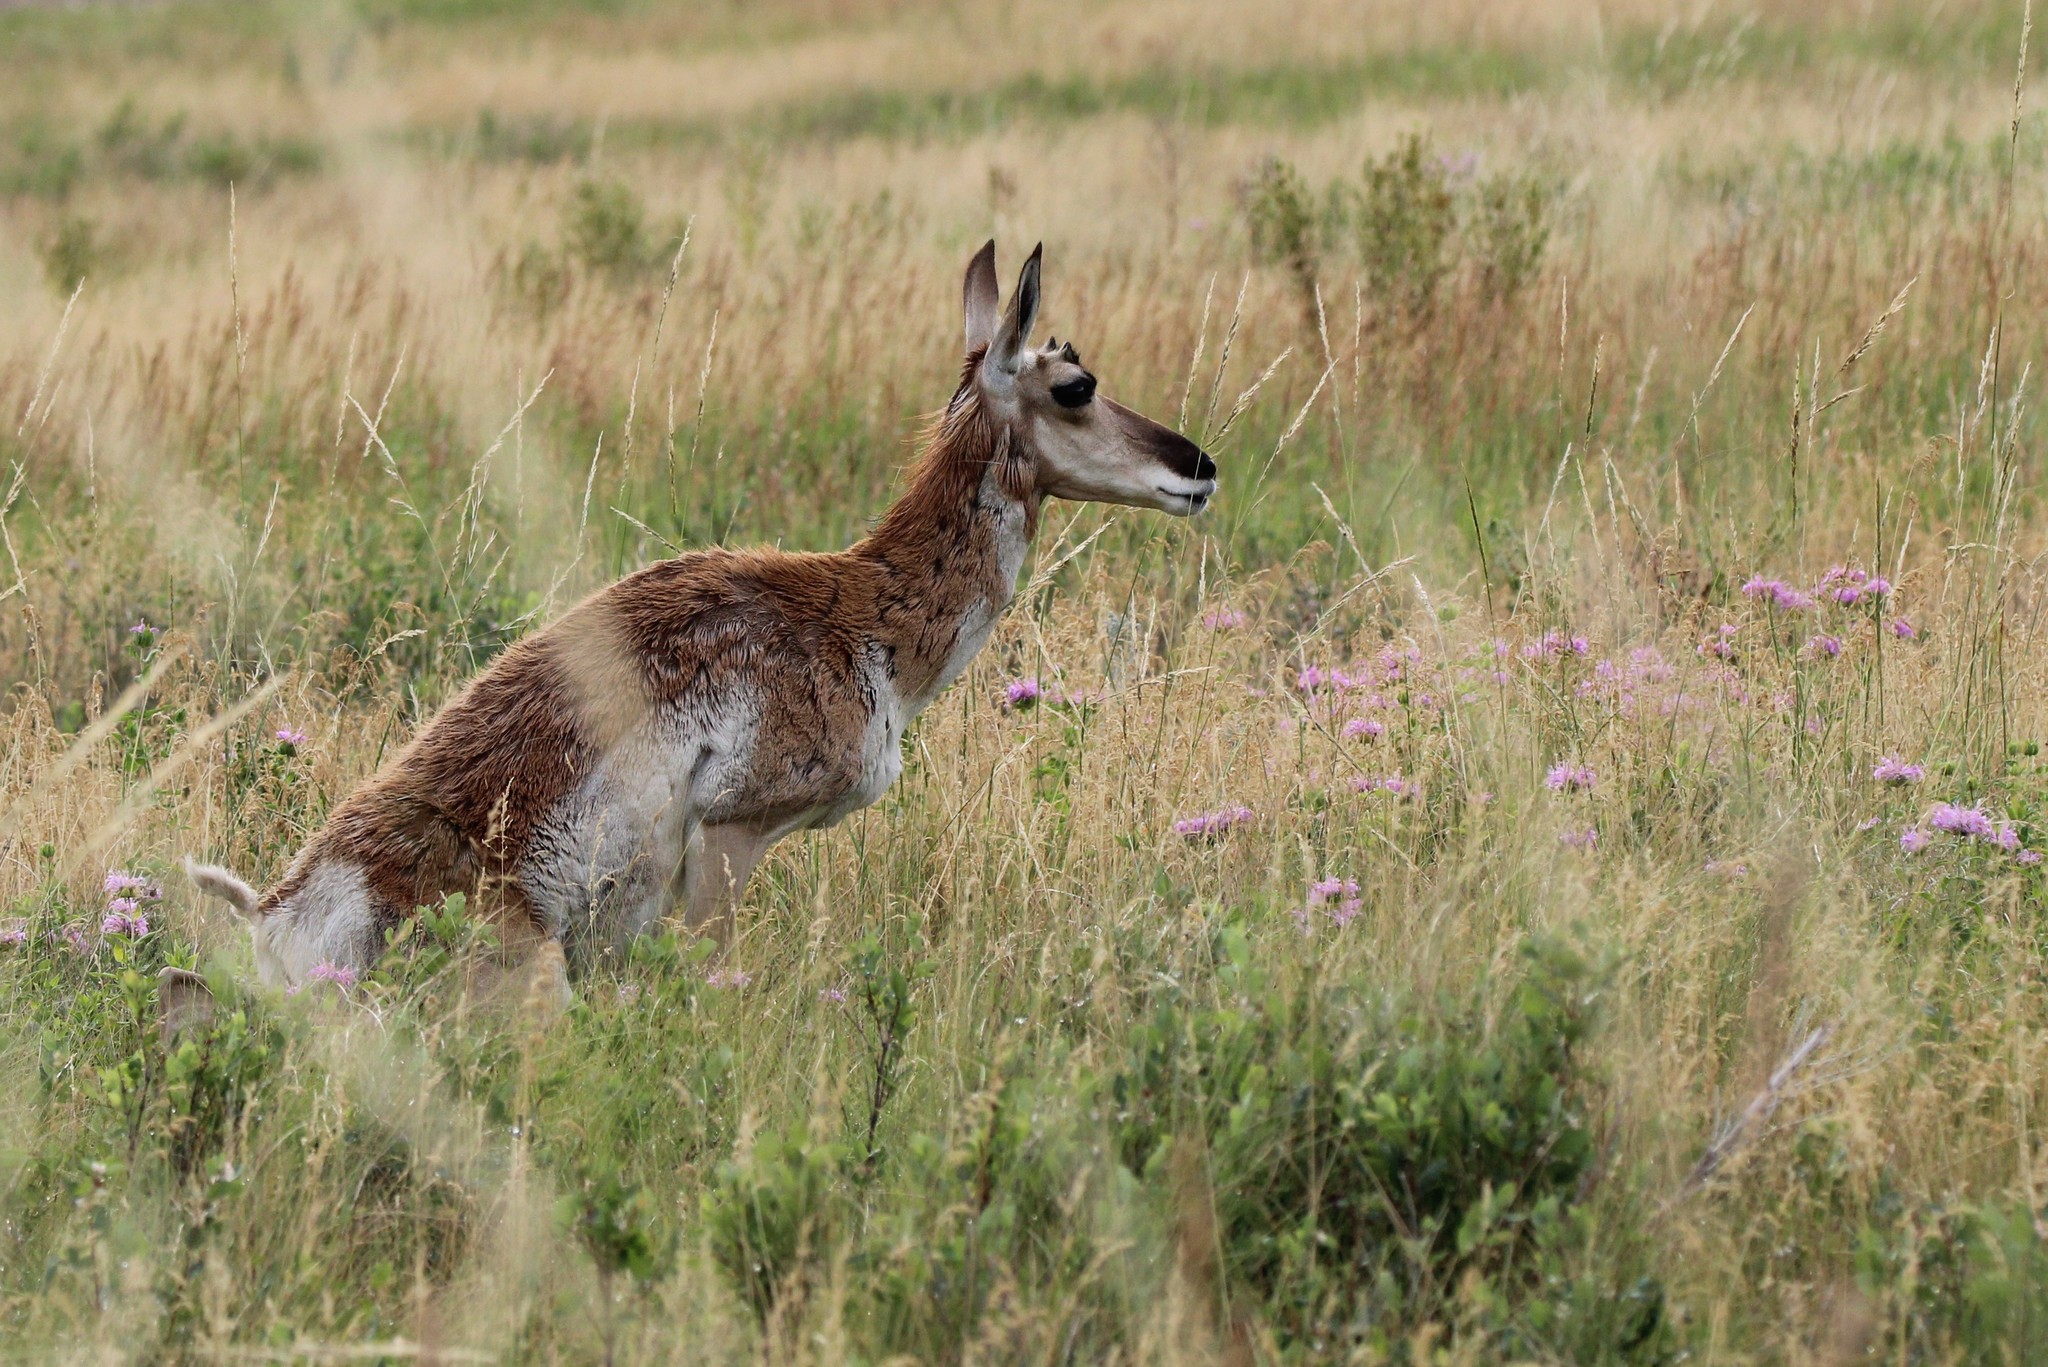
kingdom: Animalia
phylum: Chordata
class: Mammalia
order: Artiodactyla
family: Antilocapridae
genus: Antilocapra
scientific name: Antilocapra americana
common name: Pronghorn
